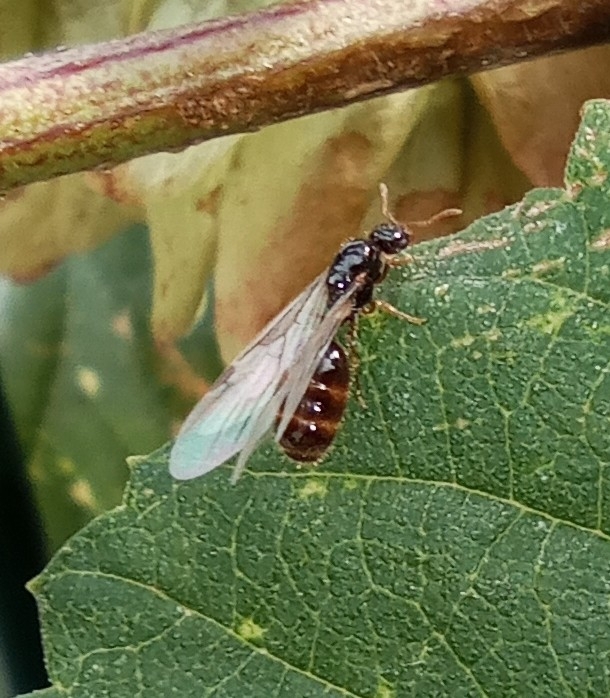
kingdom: Animalia
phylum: Arthropoda
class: Insecta
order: Hymenoptera
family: Formicidae
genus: Solenopsis
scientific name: Solenopsis fugax
